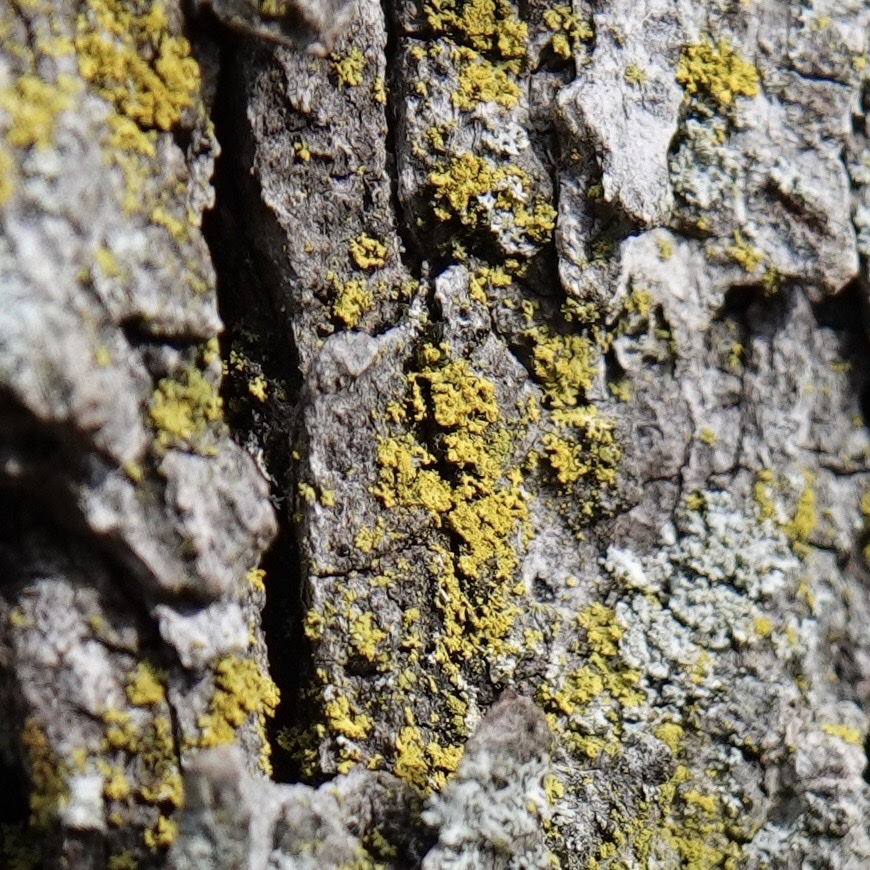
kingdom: Fungi
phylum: Ascomycota
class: Candelariomycetes
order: Candelariales
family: Candelariaceae
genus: Candelaria
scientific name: Candelaria concolor
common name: Candleflame lichen
